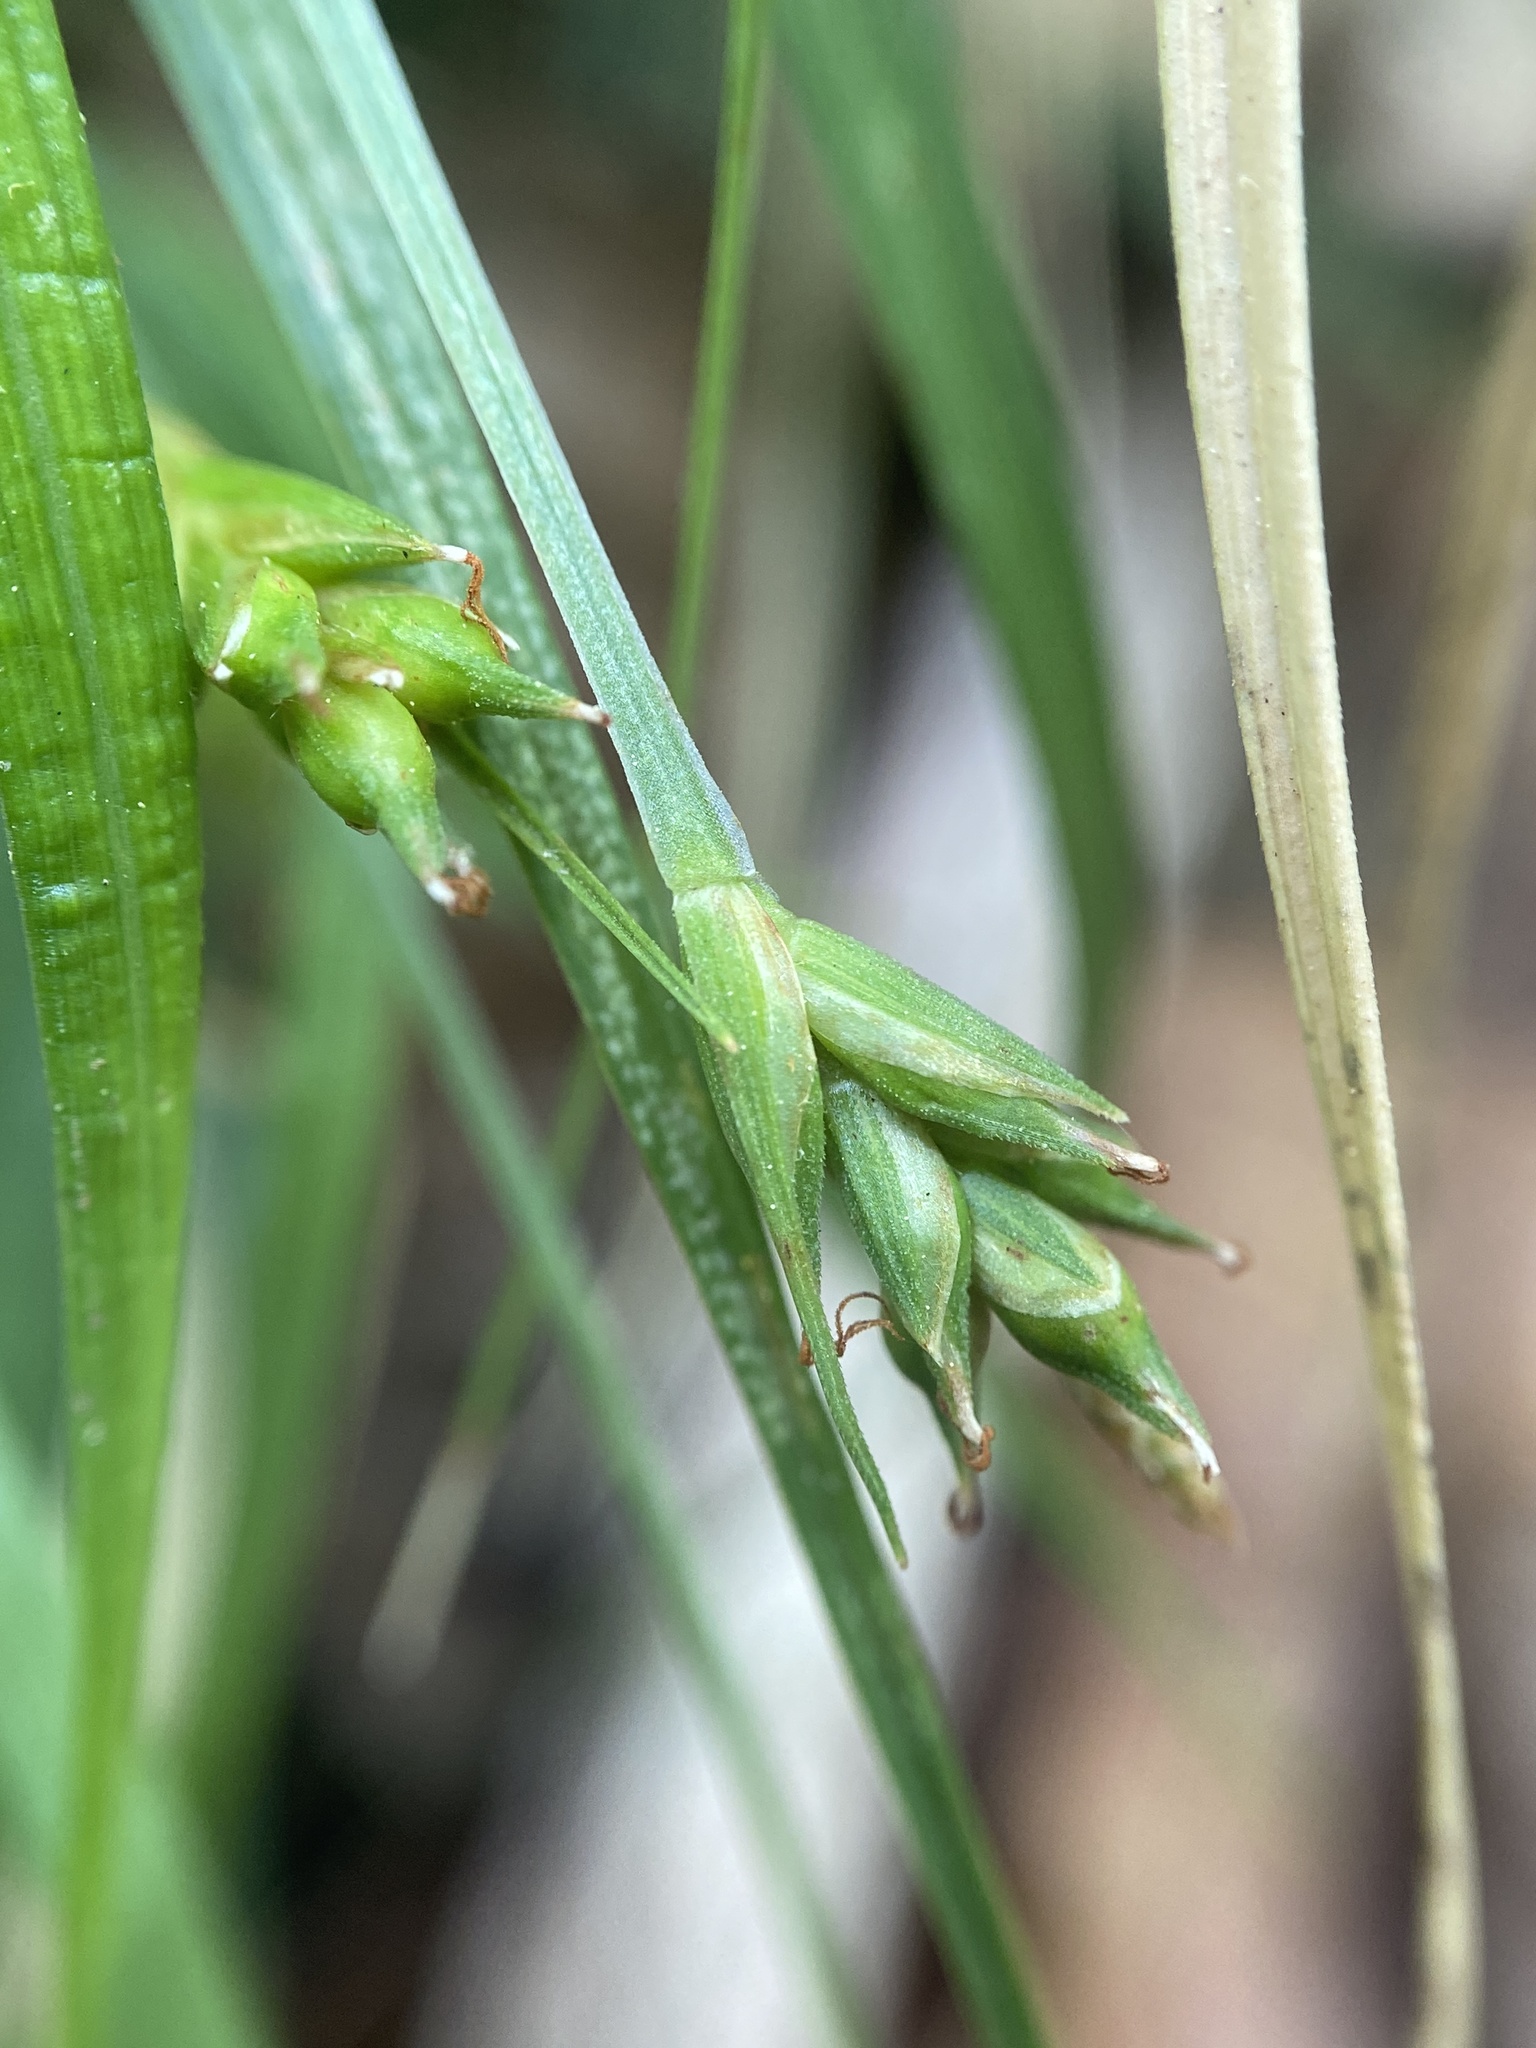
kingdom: Plantae
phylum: Tracheophyta
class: Liliopsida
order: Poales
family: Cyperaceae
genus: Carex
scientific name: Carex willdenowii
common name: Willdenow's sedge
